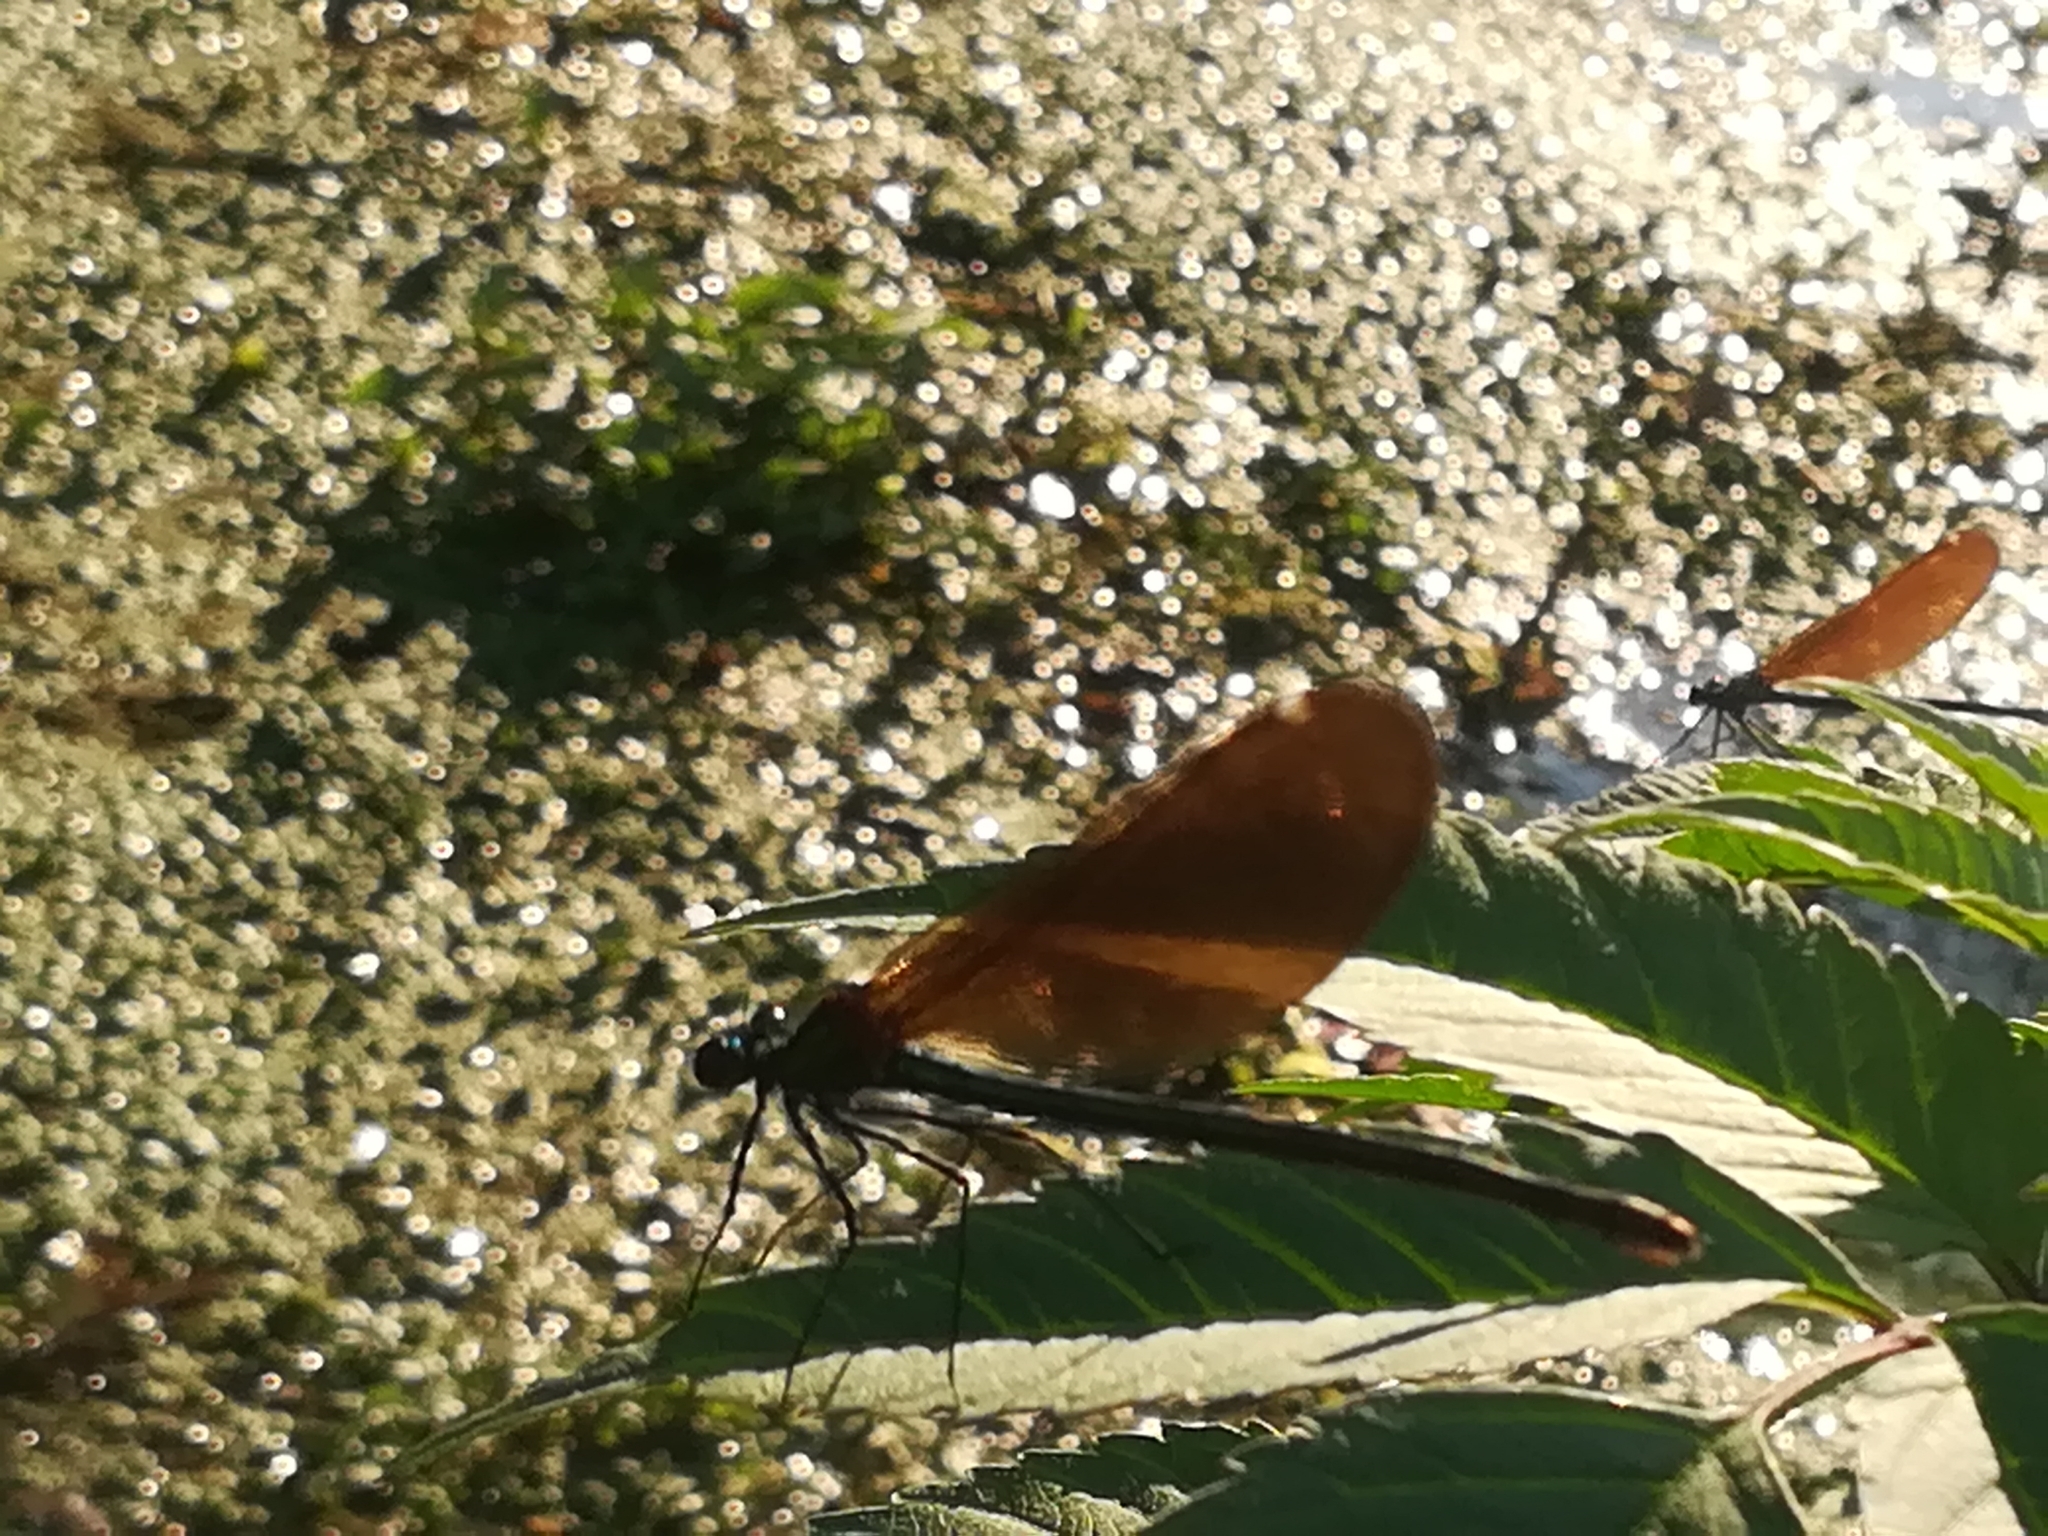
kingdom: Animalia
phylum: Arthropoda
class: Insecta
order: Odonata
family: Calopterygidae
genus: Calopteryx
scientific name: Calopteryx virgo
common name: Beautiful demoiselle
